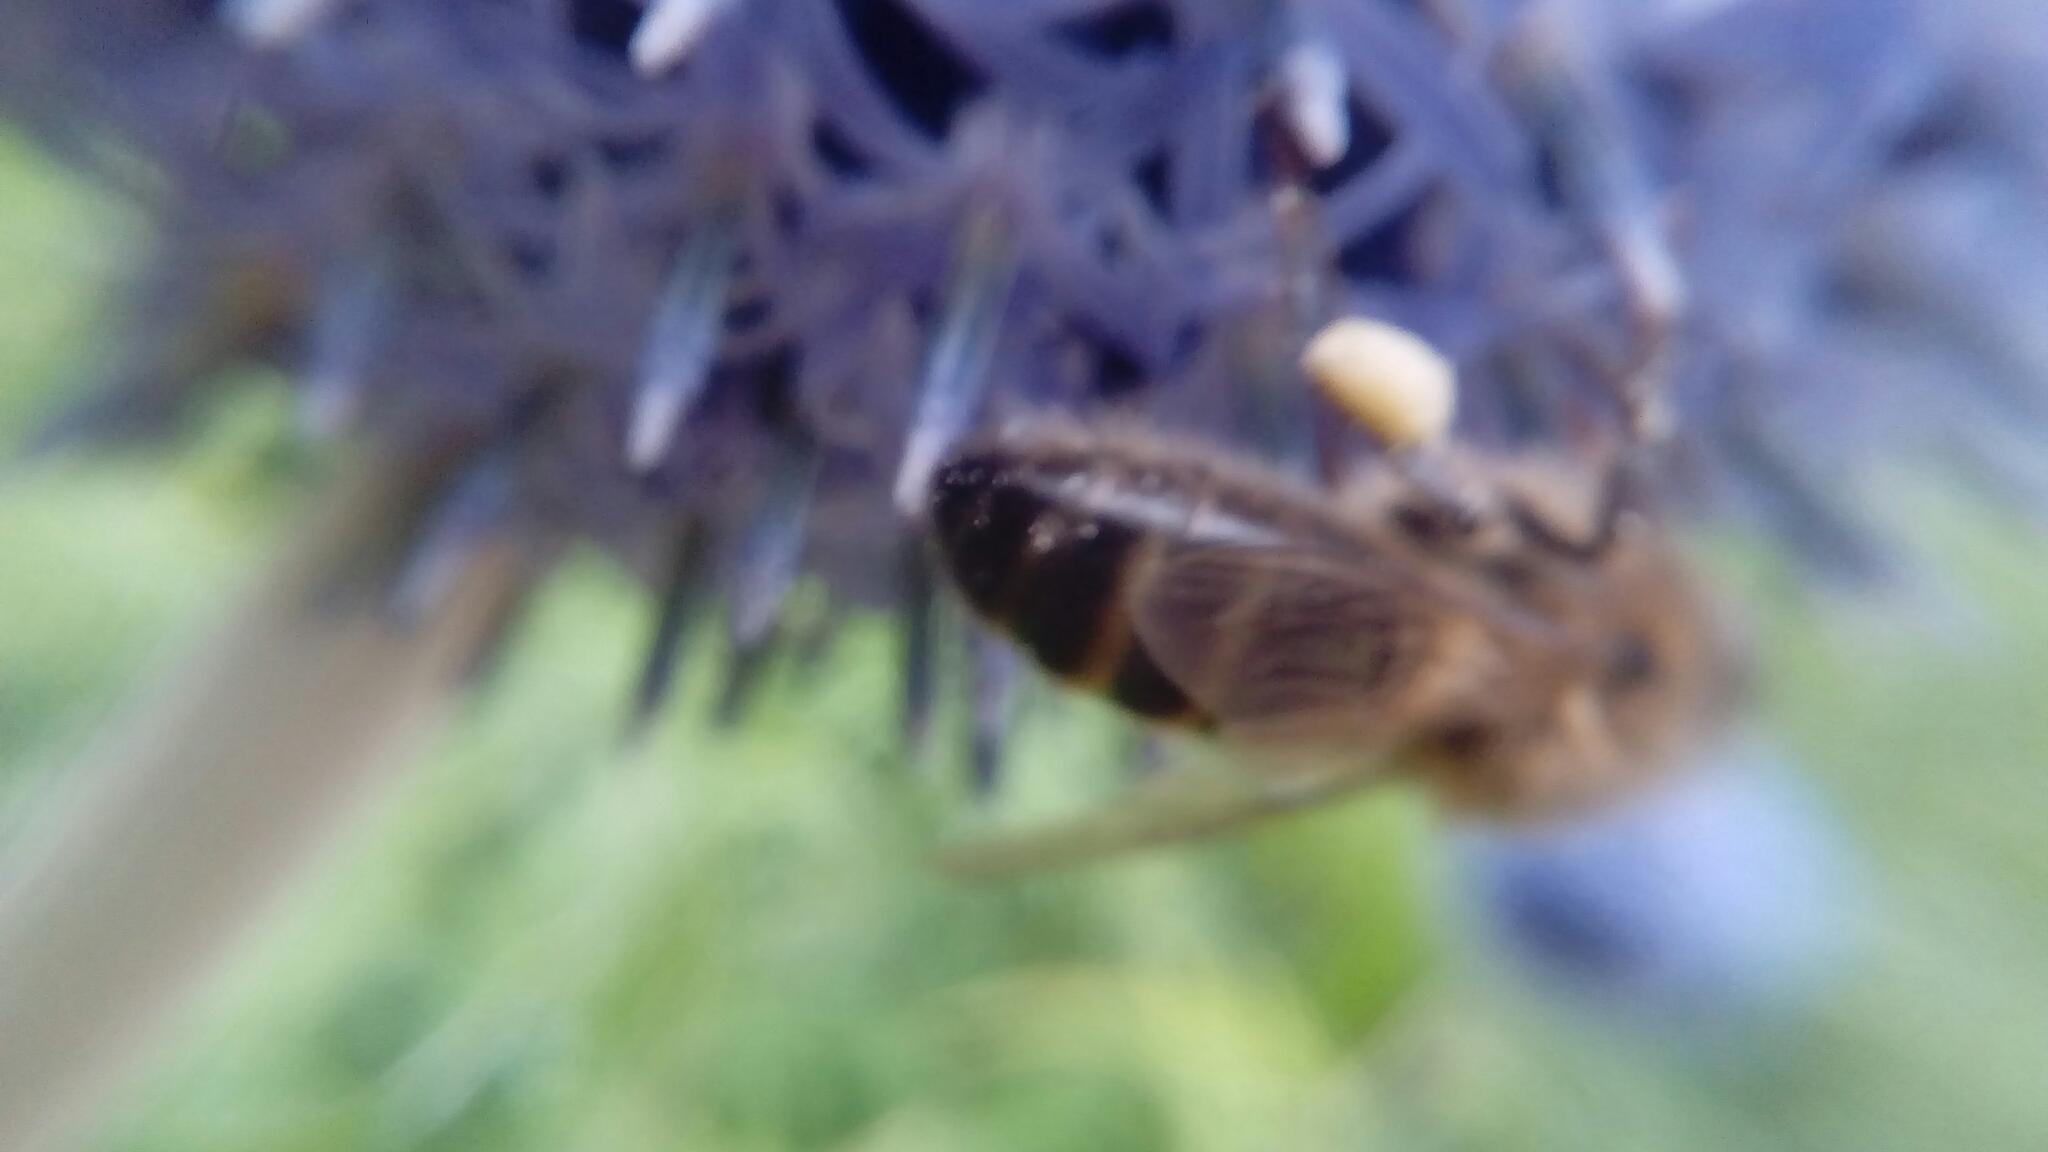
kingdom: Animalia
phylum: Arthropoda
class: Insecta
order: Hymenoptera
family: Apidae
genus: Apis
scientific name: Apis mellifera
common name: Honey bee
